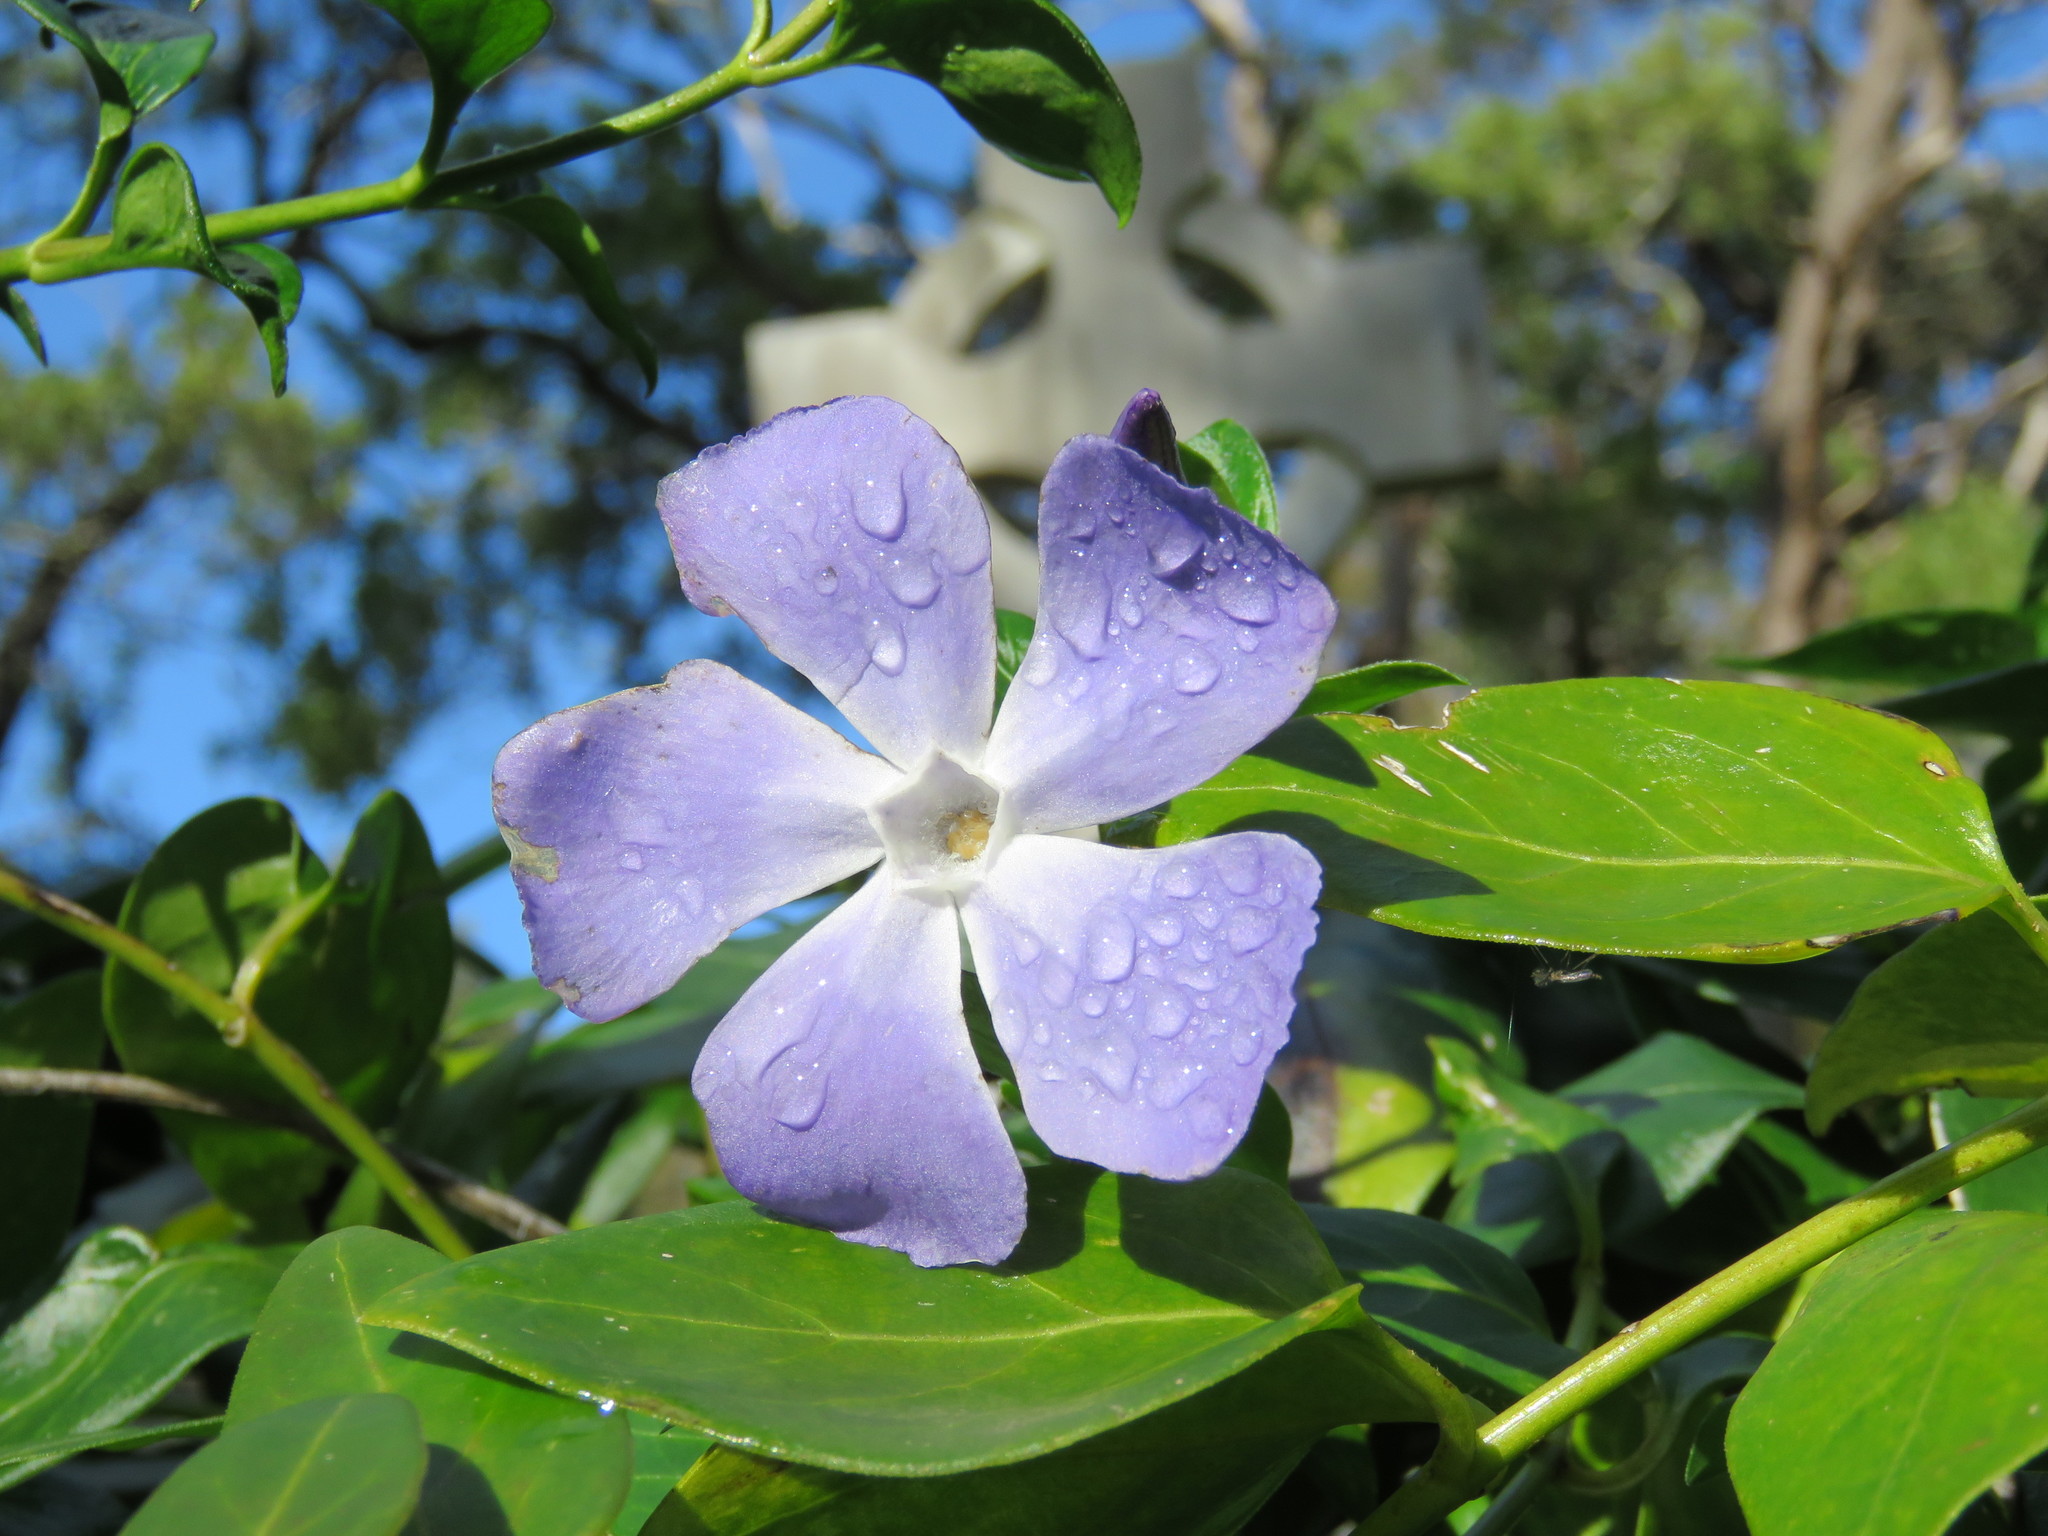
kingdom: Plantae
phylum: Tracheophyta
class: Magnoliopsida
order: Gentianales
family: Apocynaceae
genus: Vinca
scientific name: Vinca major
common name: Greater periwinkle
